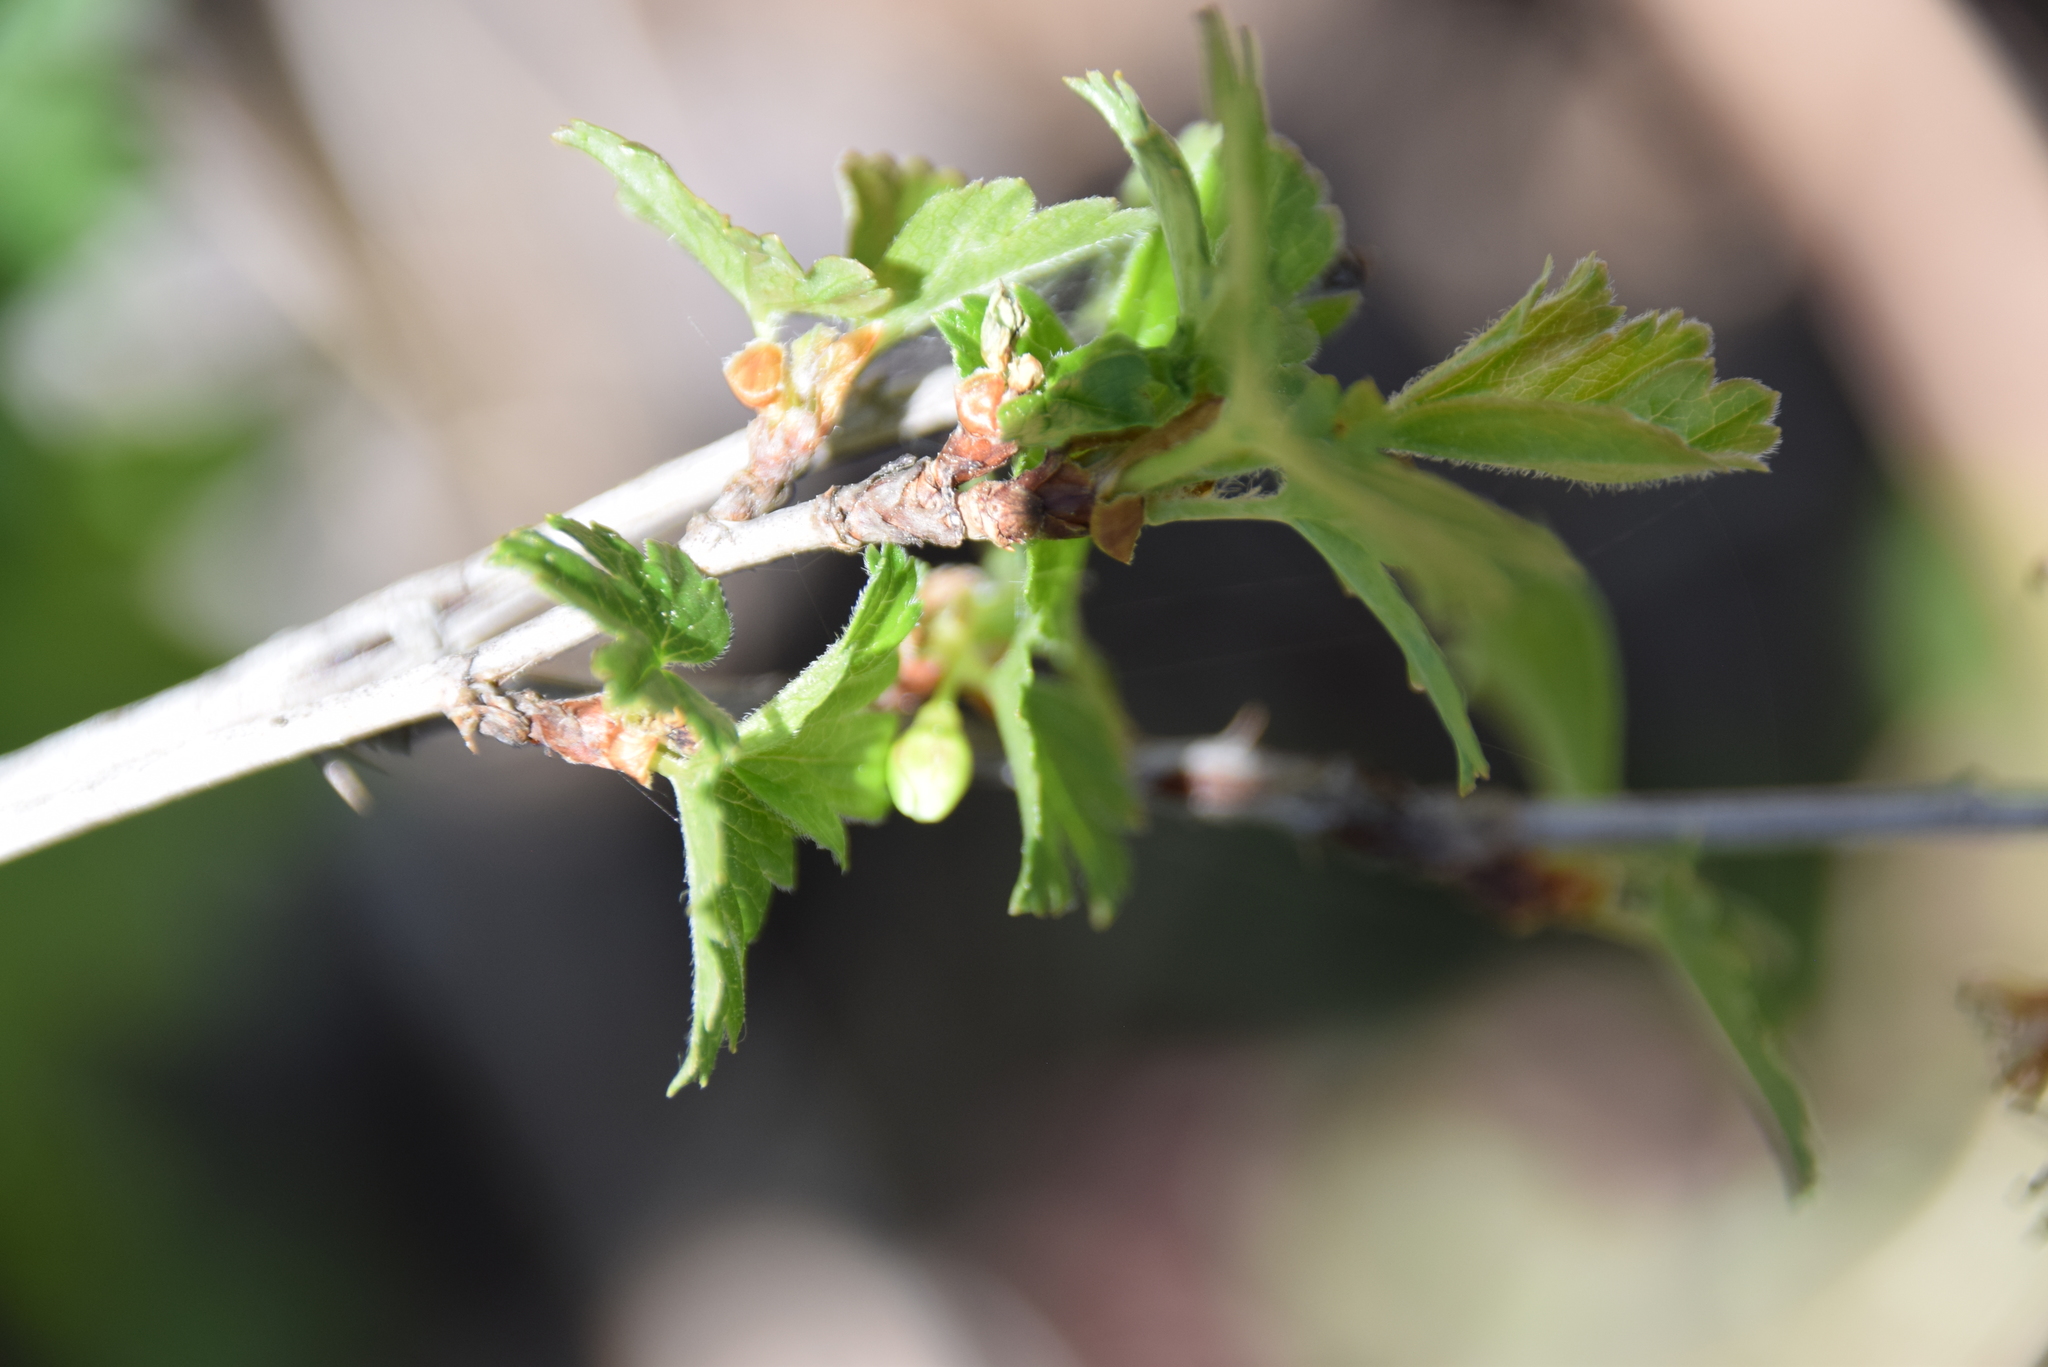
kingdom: Plantae
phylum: Tracheophyta
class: Magnoliopsida
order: Saxifragales
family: Grossulariaceae
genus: Ribes
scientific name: Ribes hirtellum
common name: Hairy gooseberry
